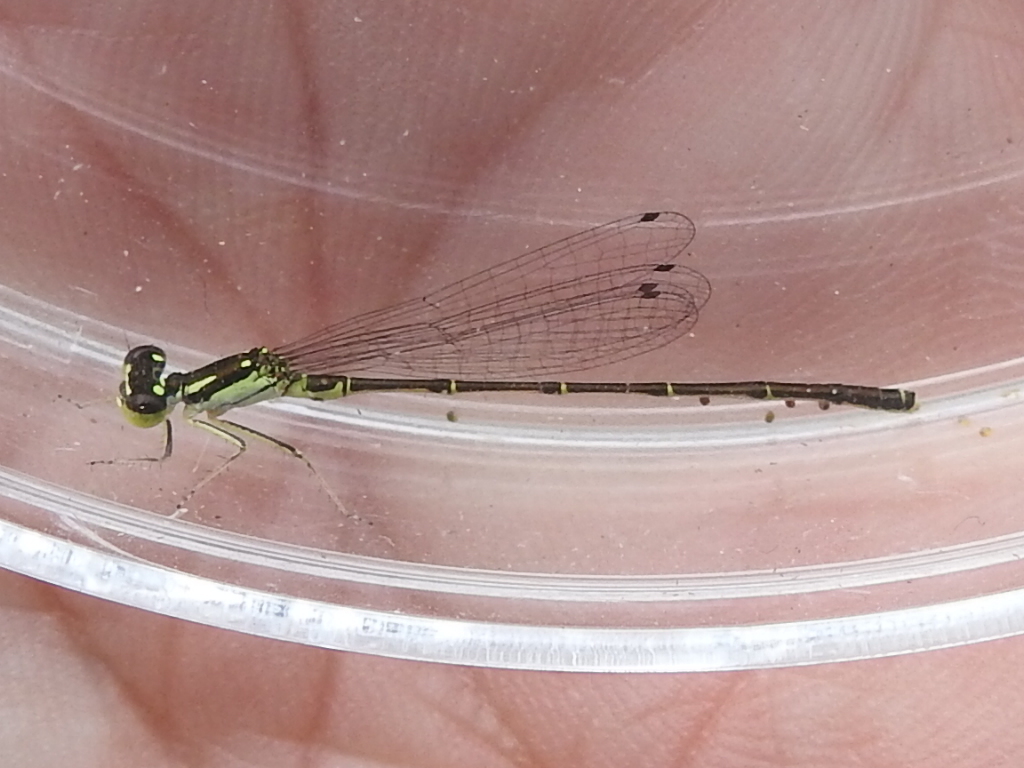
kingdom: Animalia
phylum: Arthropoda
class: Insecta
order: Odonata
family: Coenagrionidae
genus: Ischnura
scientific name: Ischnura posita
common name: Fragile forktail
